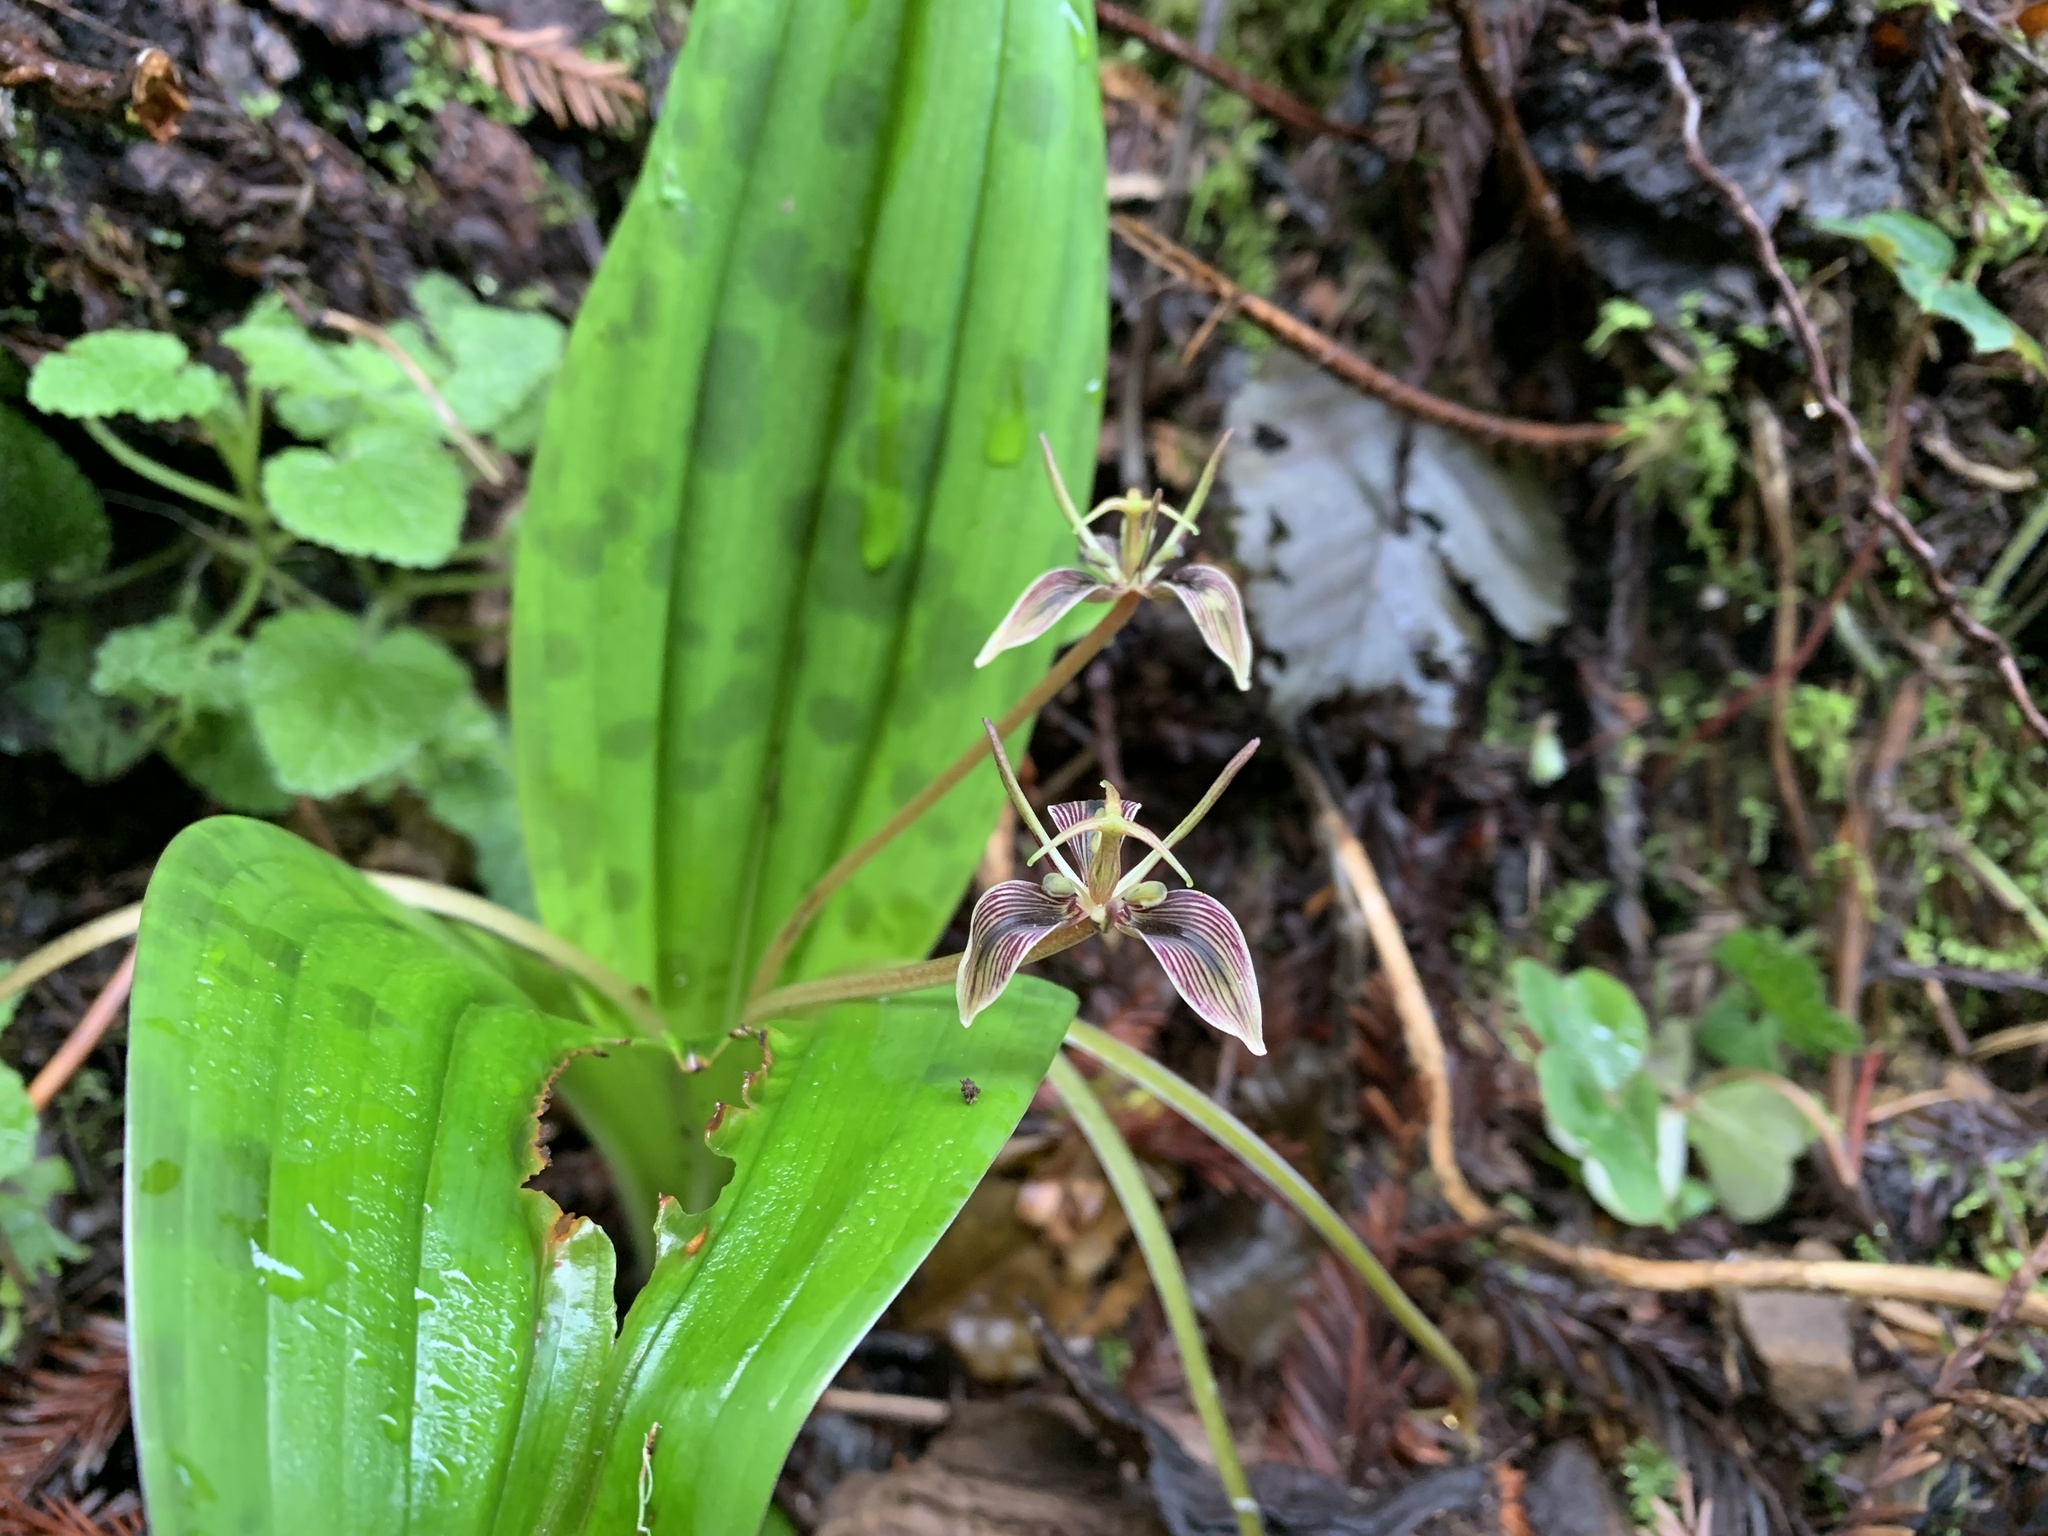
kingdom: Plantae
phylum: Tracheophyta
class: Liliopsida
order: Liliales
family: Liliaceae
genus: Scoliopus
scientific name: Scoliopus bigelovii
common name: Foetid adder's-tongue
